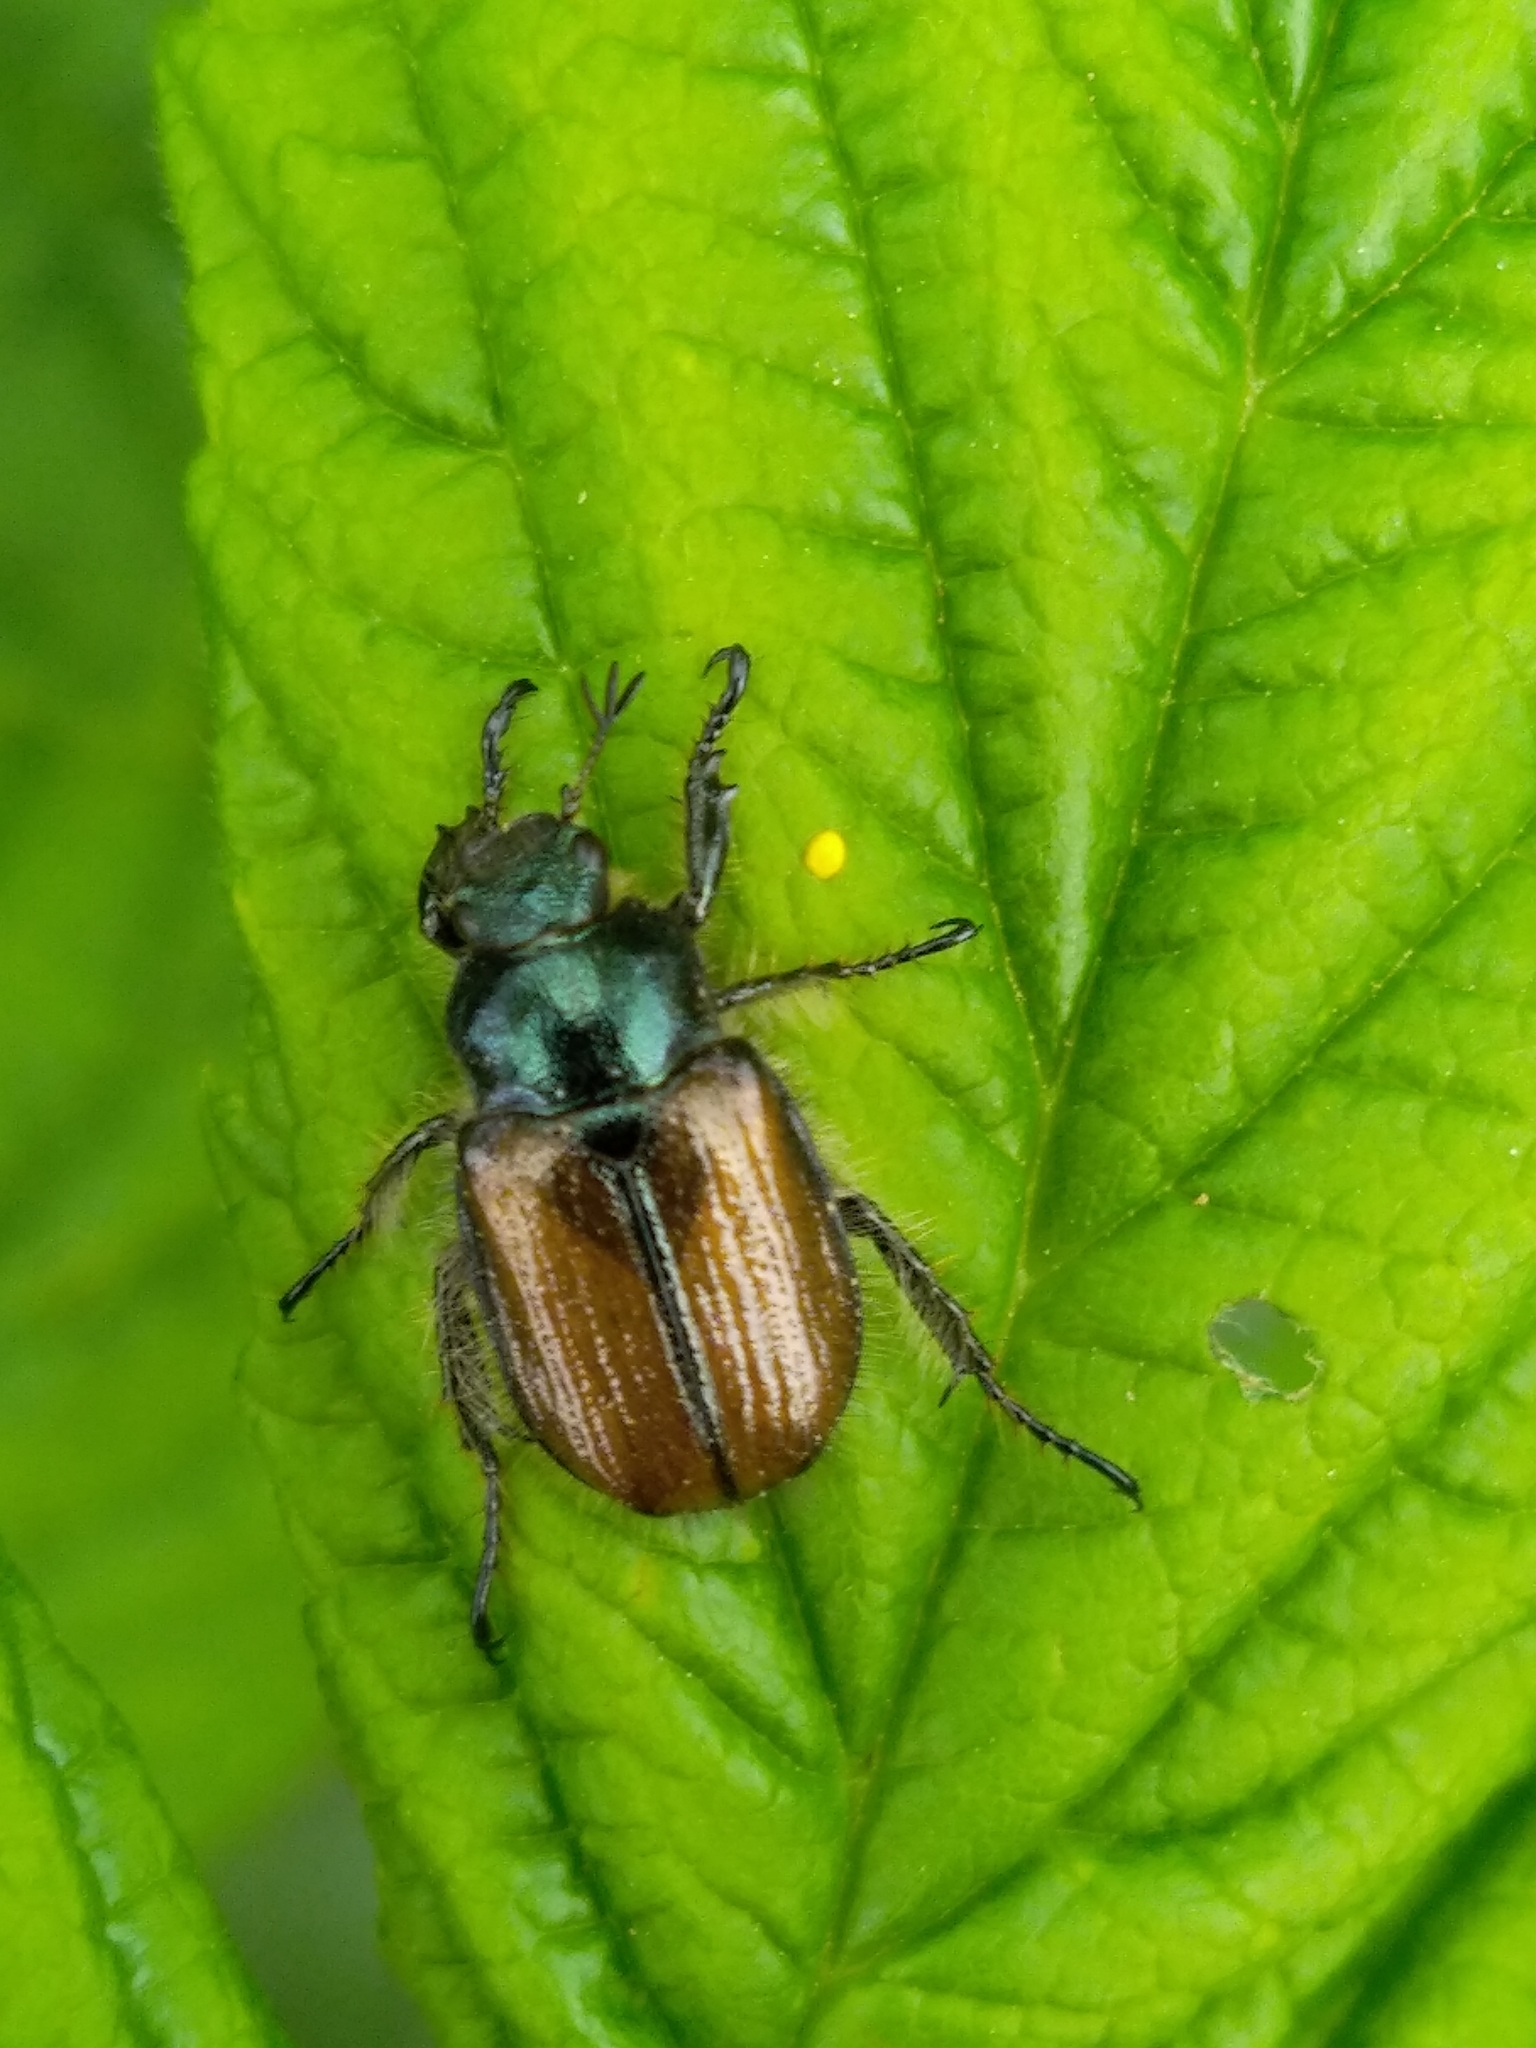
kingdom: Animalia
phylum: Arthropoda
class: Insecta
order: Coleoptera
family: Scarabaeidae
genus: Phyllopertha
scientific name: Phyllopertha horticola
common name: Garden chafer
